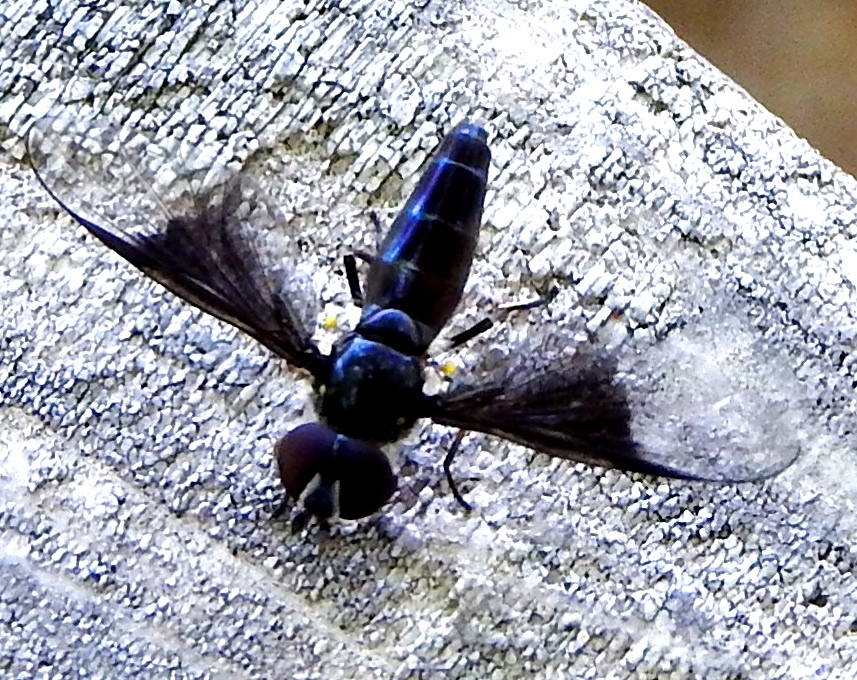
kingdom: Animalia
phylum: Arthropoda
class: Insecta
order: Diptera
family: Syrphidae
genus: Ocyptamus
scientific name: Ocyptamus
